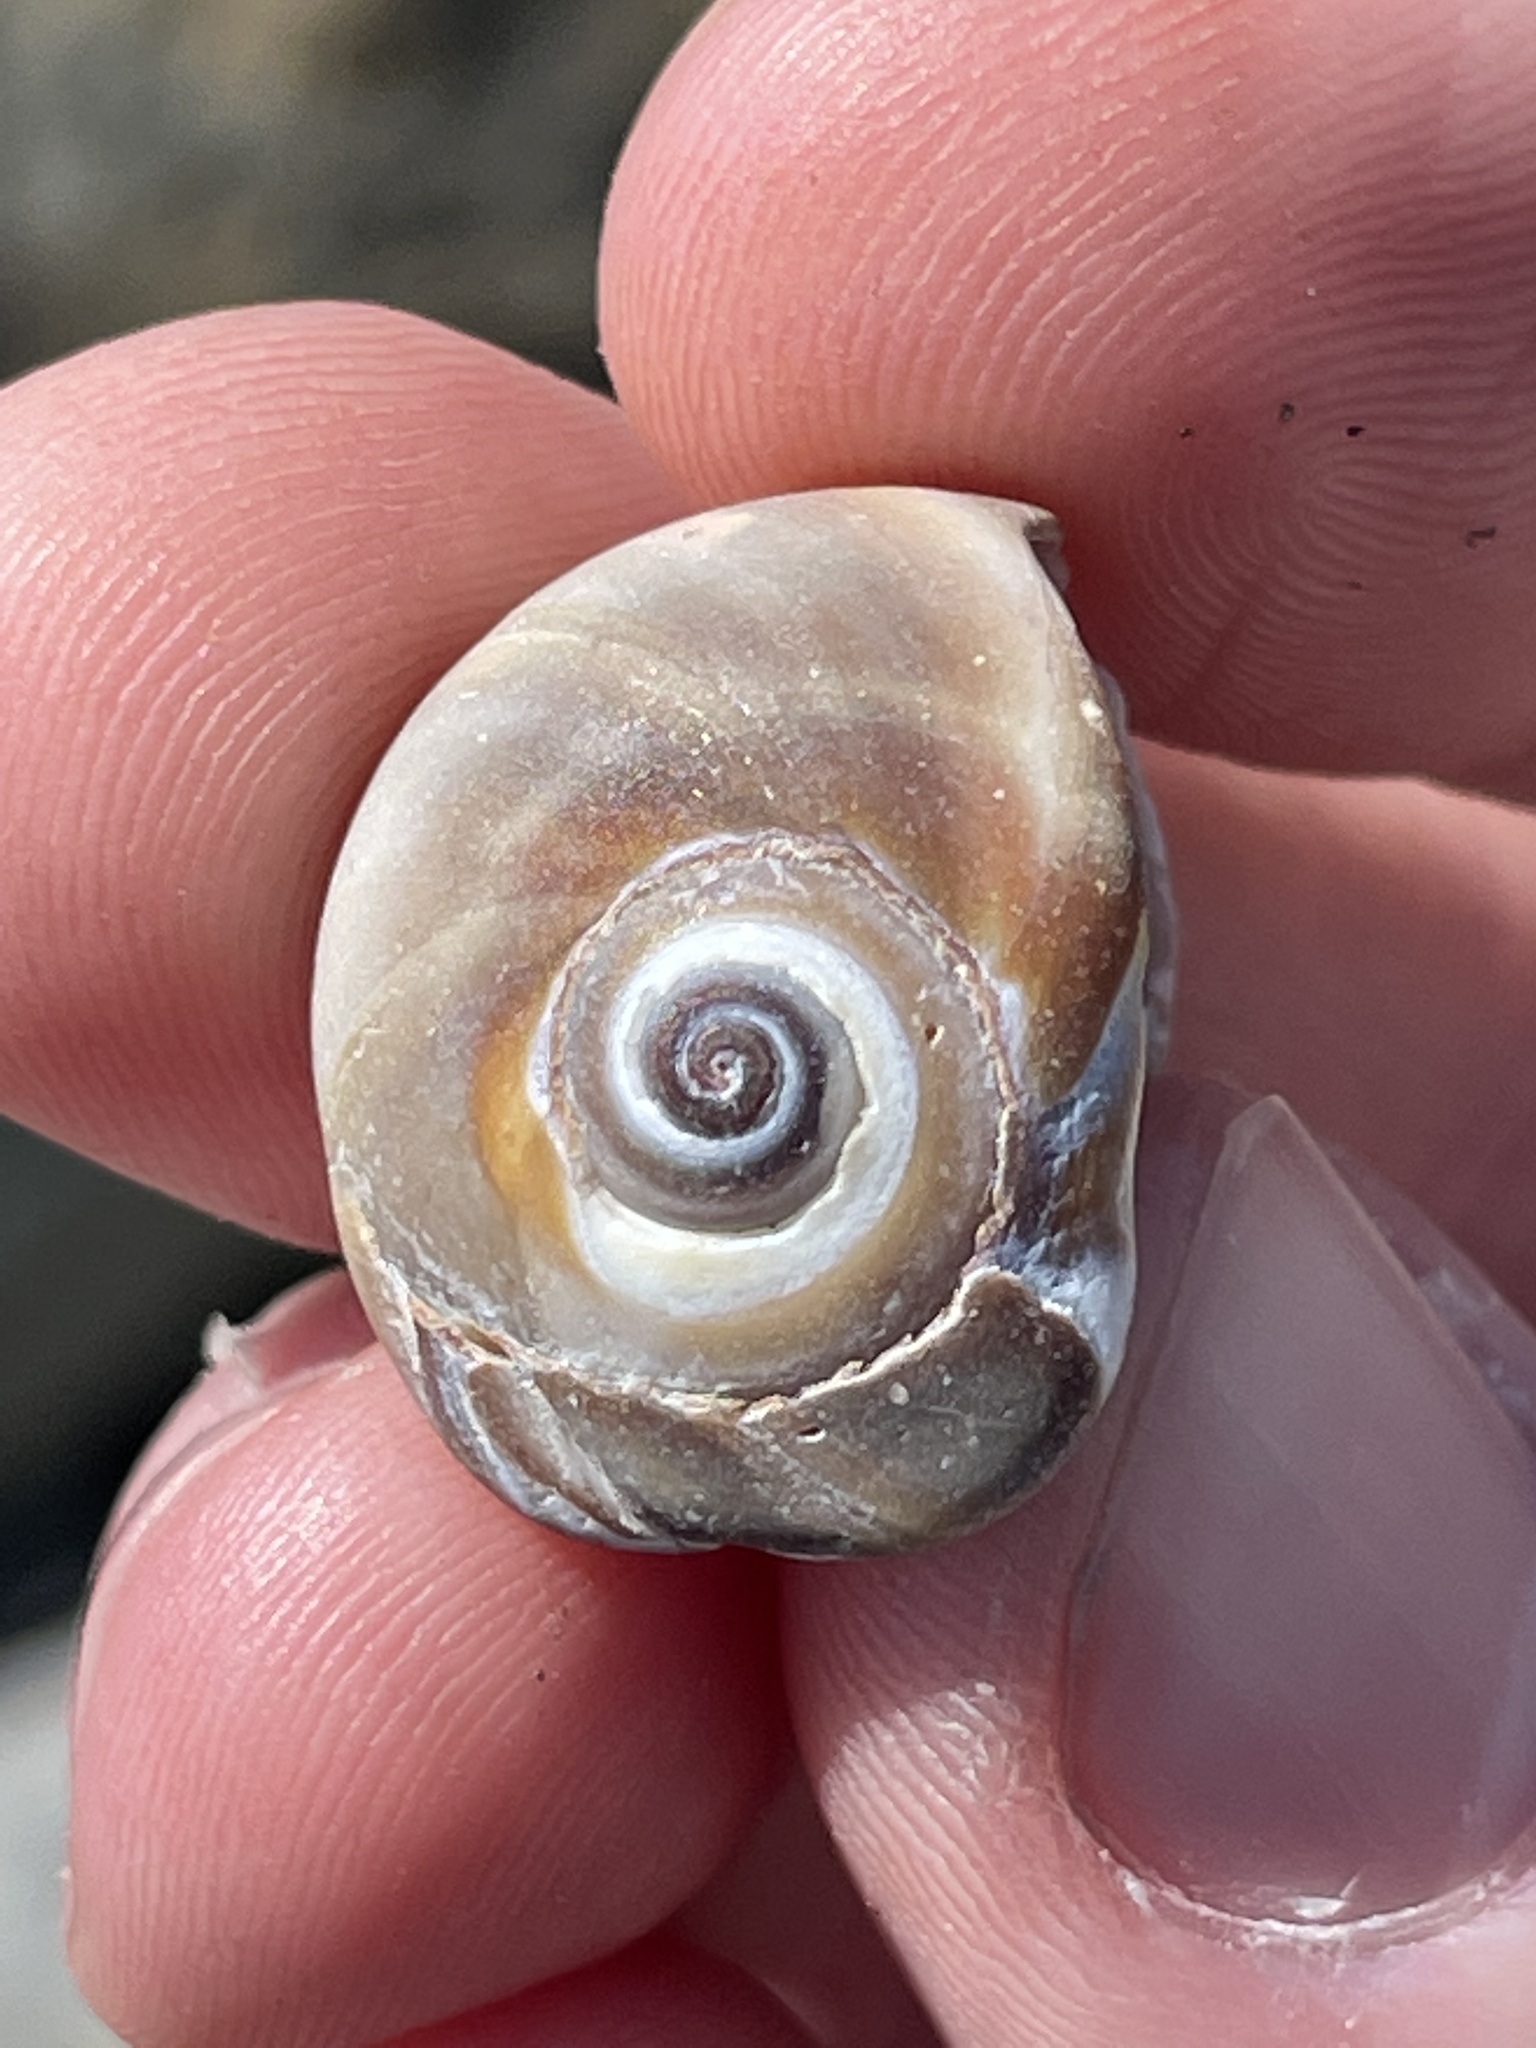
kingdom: Animalia
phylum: Mollusca
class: Gastropoda
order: Littorinimorpha
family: Naticidae
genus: Neverita
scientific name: Neverita duplicata
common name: Lobed moonsnail
